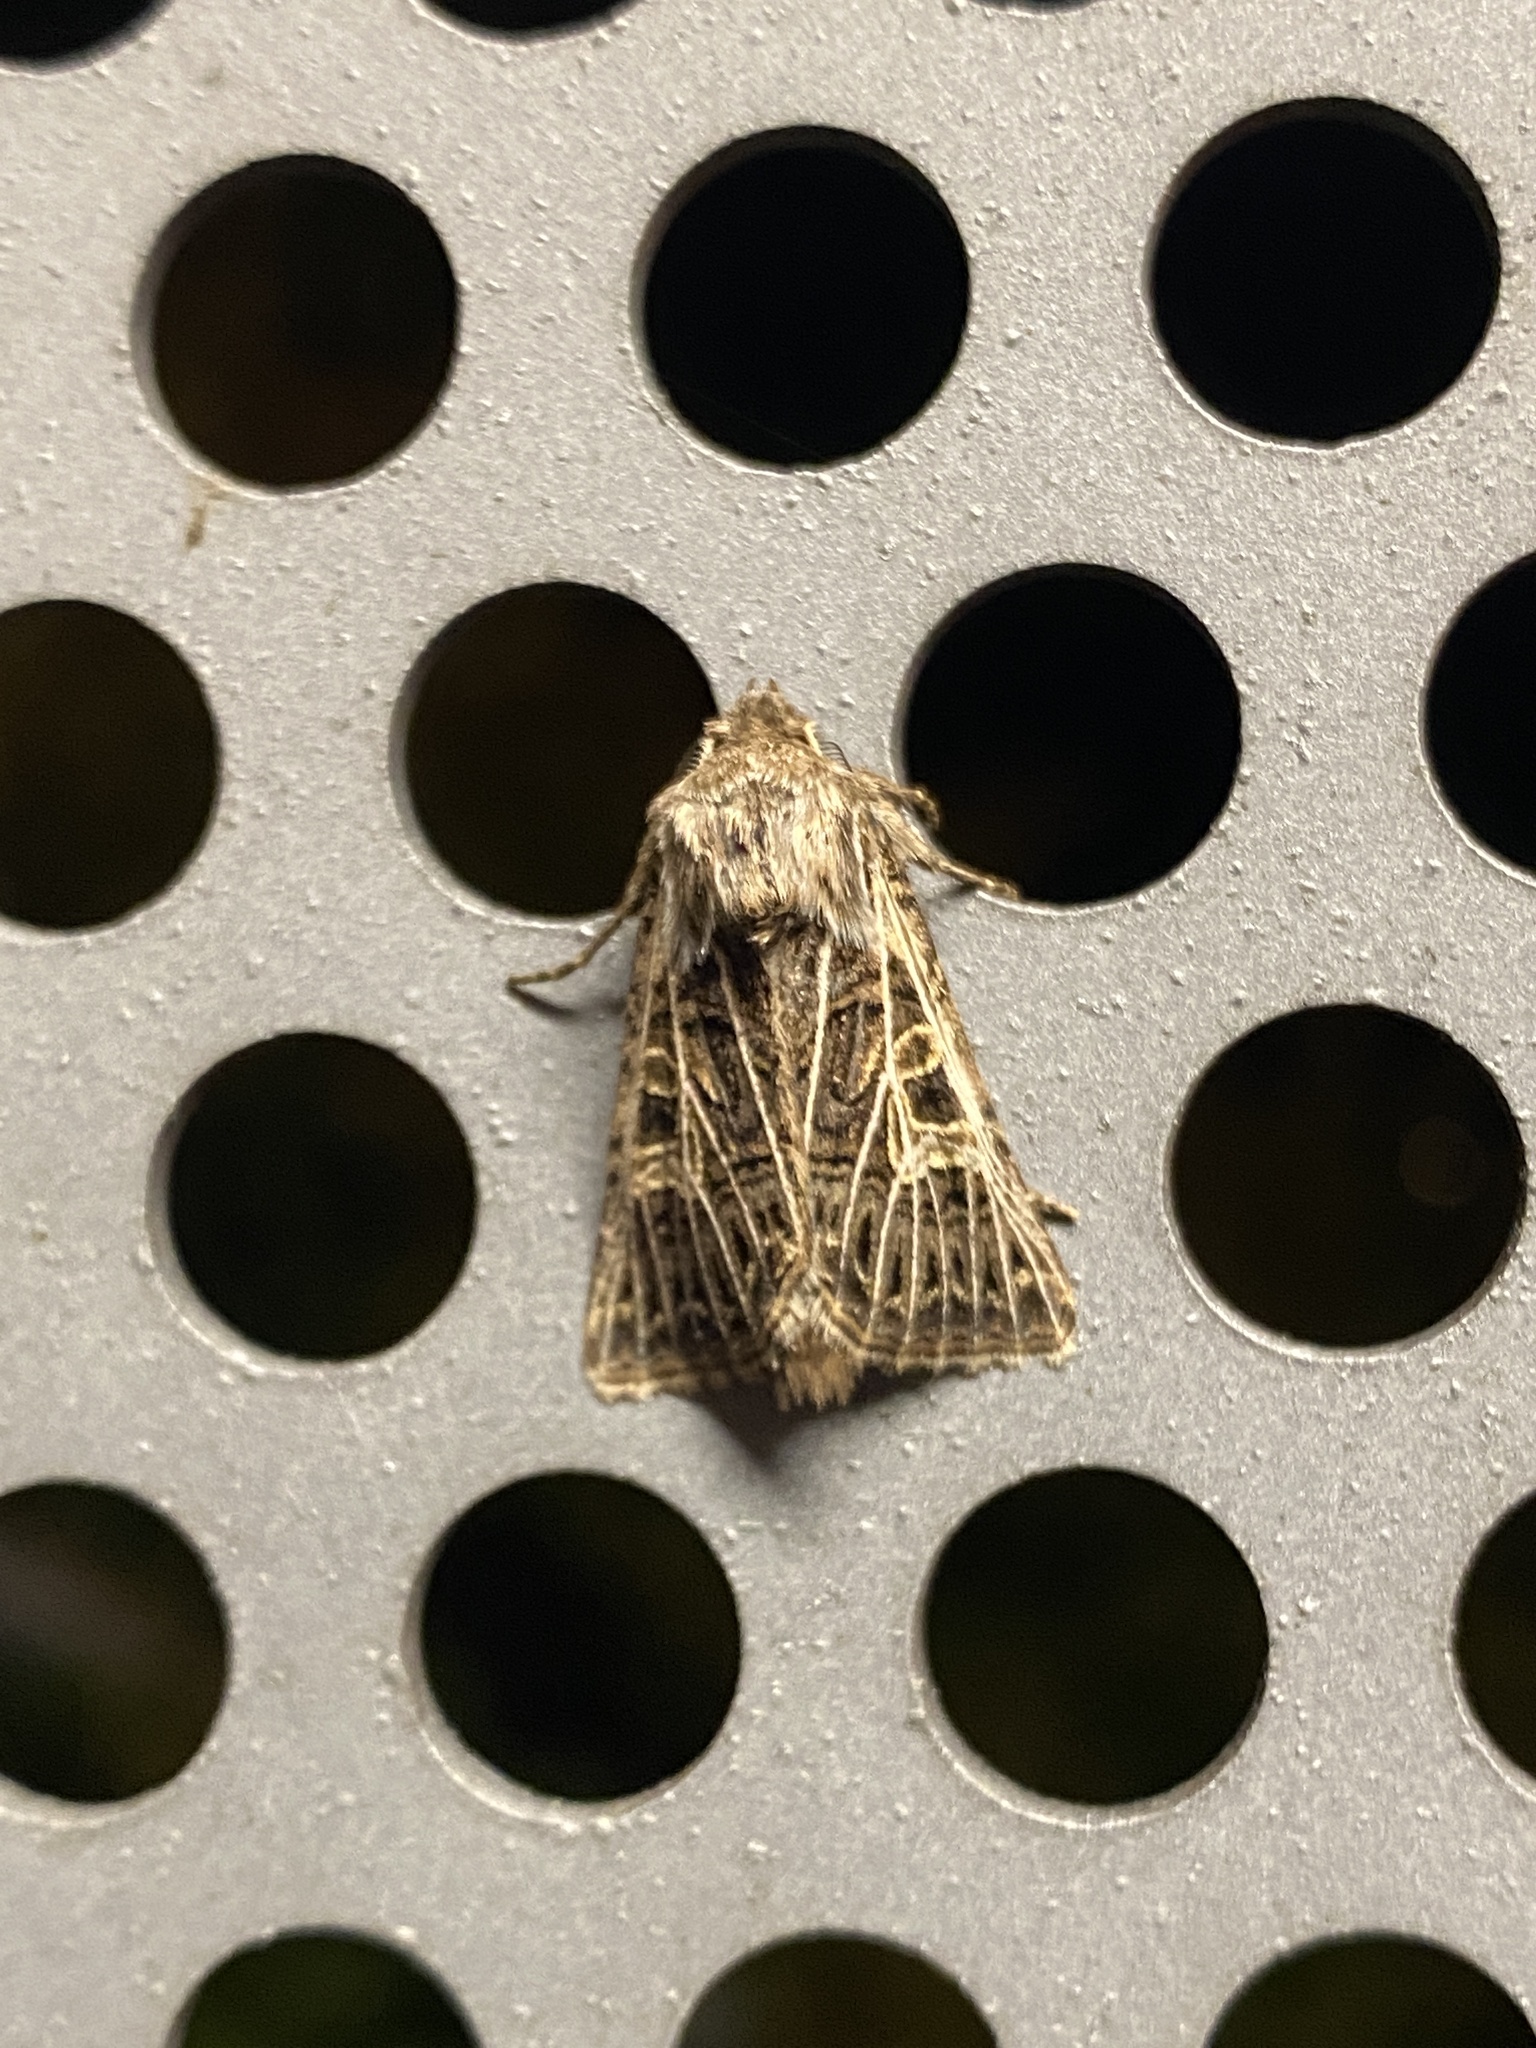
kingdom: Animalia
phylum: Arthropoda
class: Insecta
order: Lepidoptera
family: Noctuidae
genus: Tholera
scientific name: Tholera decimalis
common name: Feathered gothic
